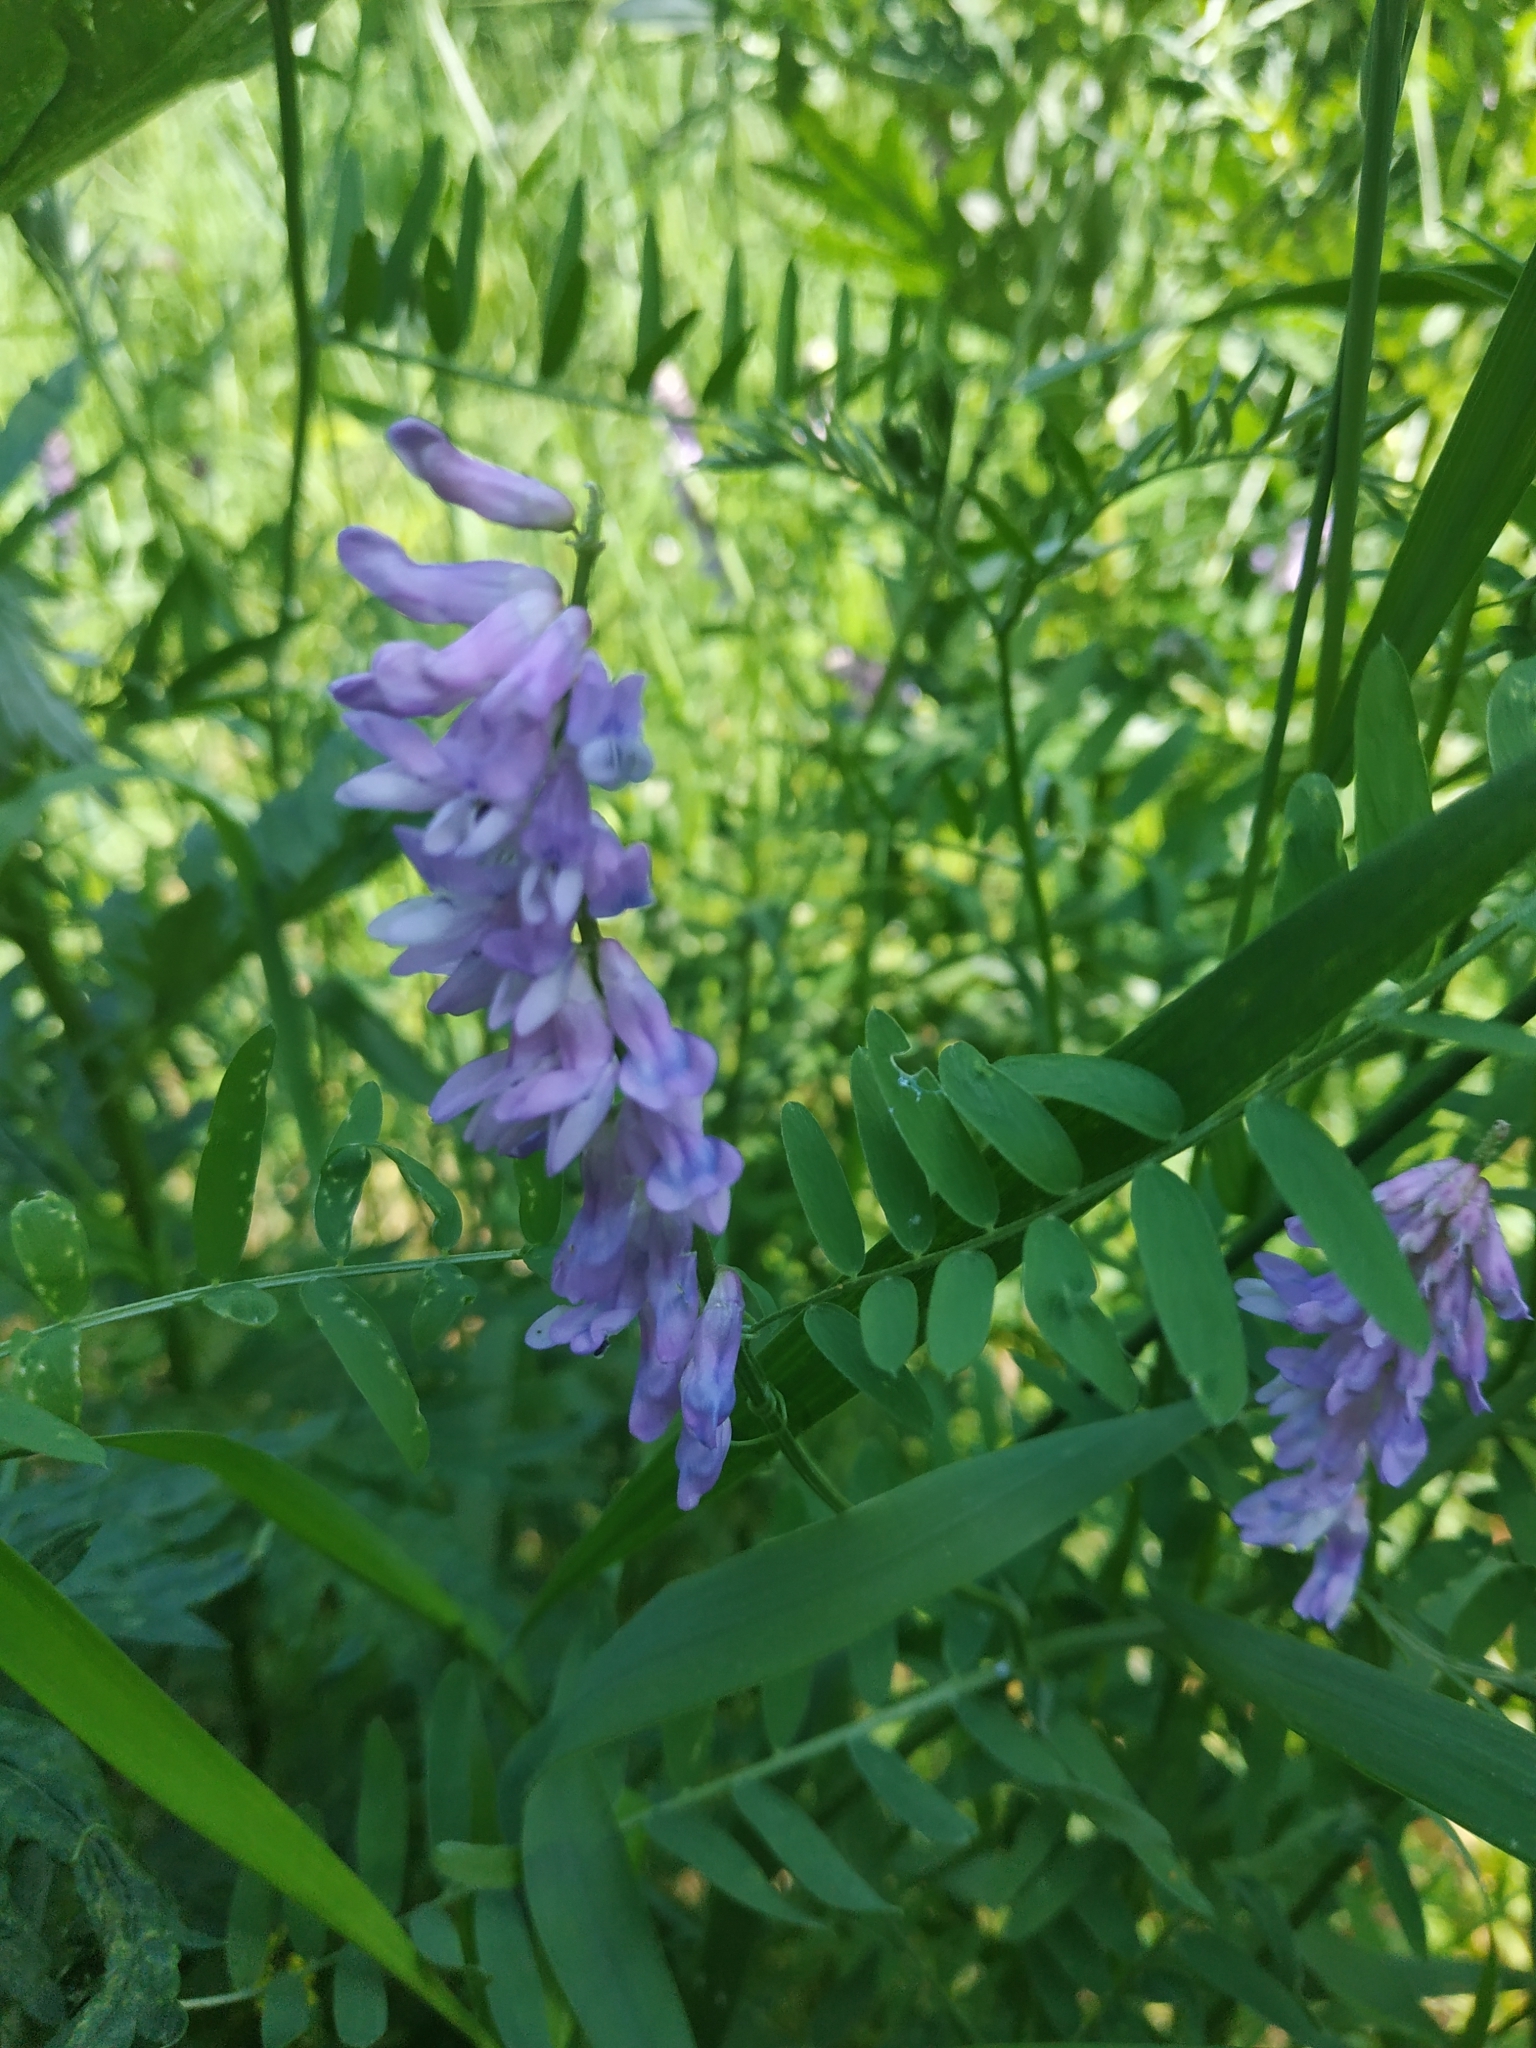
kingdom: Plantae
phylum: Tracheophyta
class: Magnoliopsida
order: Fabales
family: Fabaceae
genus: Vicia
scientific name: Vicia cracca
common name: Bird vetch
